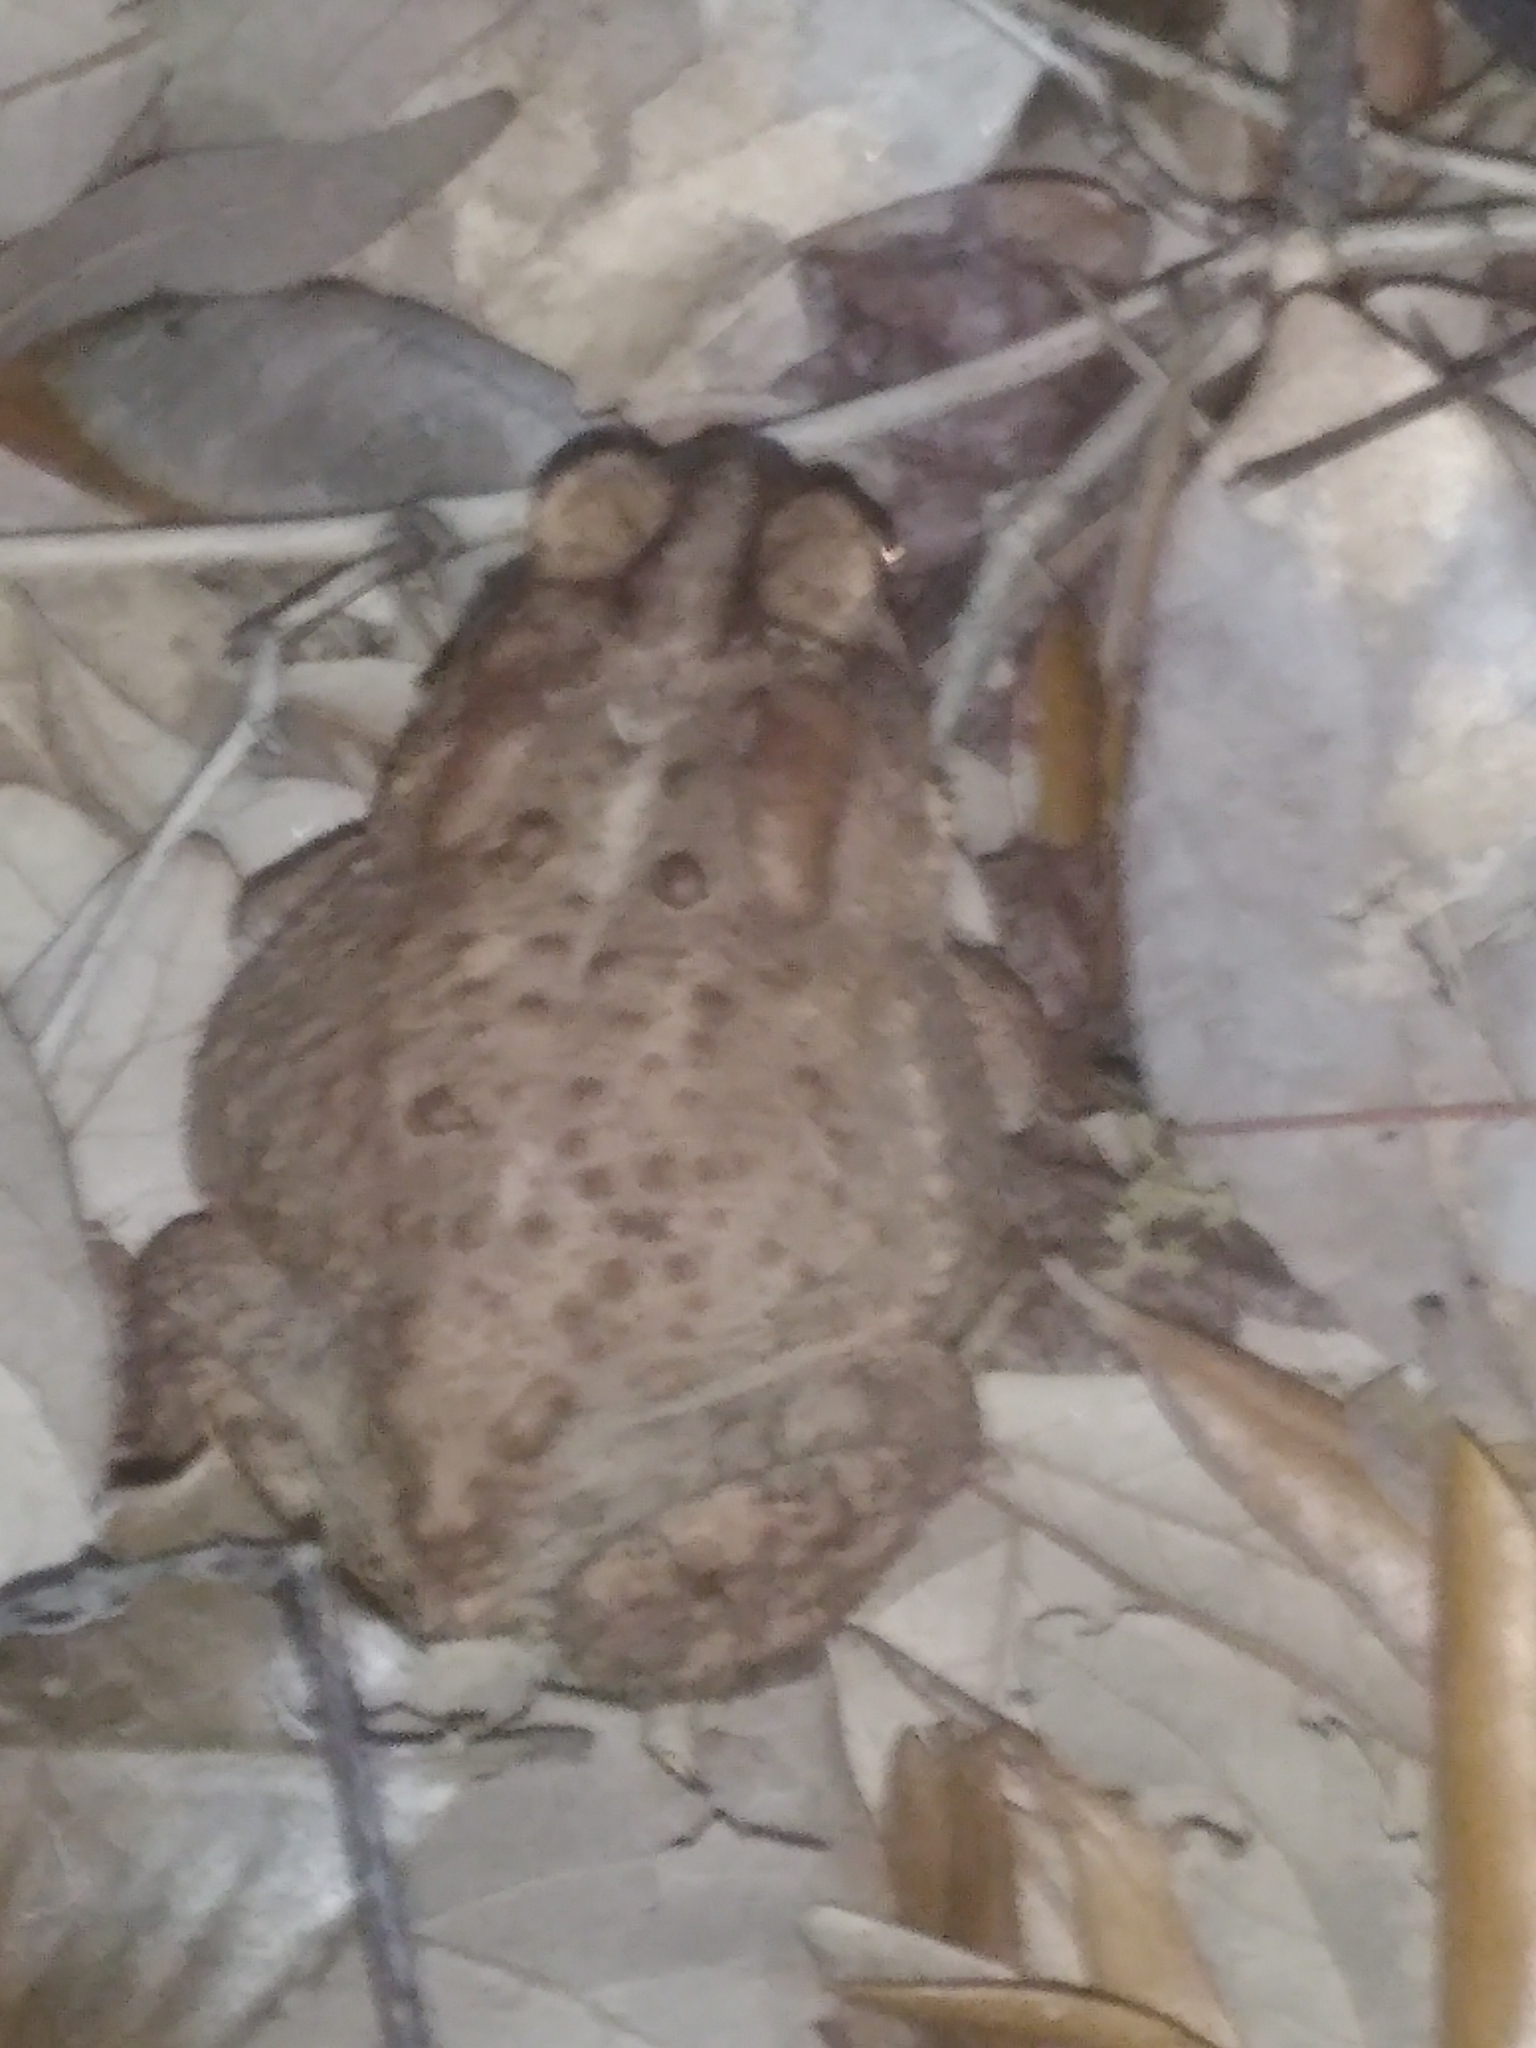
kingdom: Animalia
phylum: Chordata
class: Amphibia
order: Anura
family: Bufonidae
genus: Anaxyrus
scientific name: Anaxyrus terrestris
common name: Southern toad
